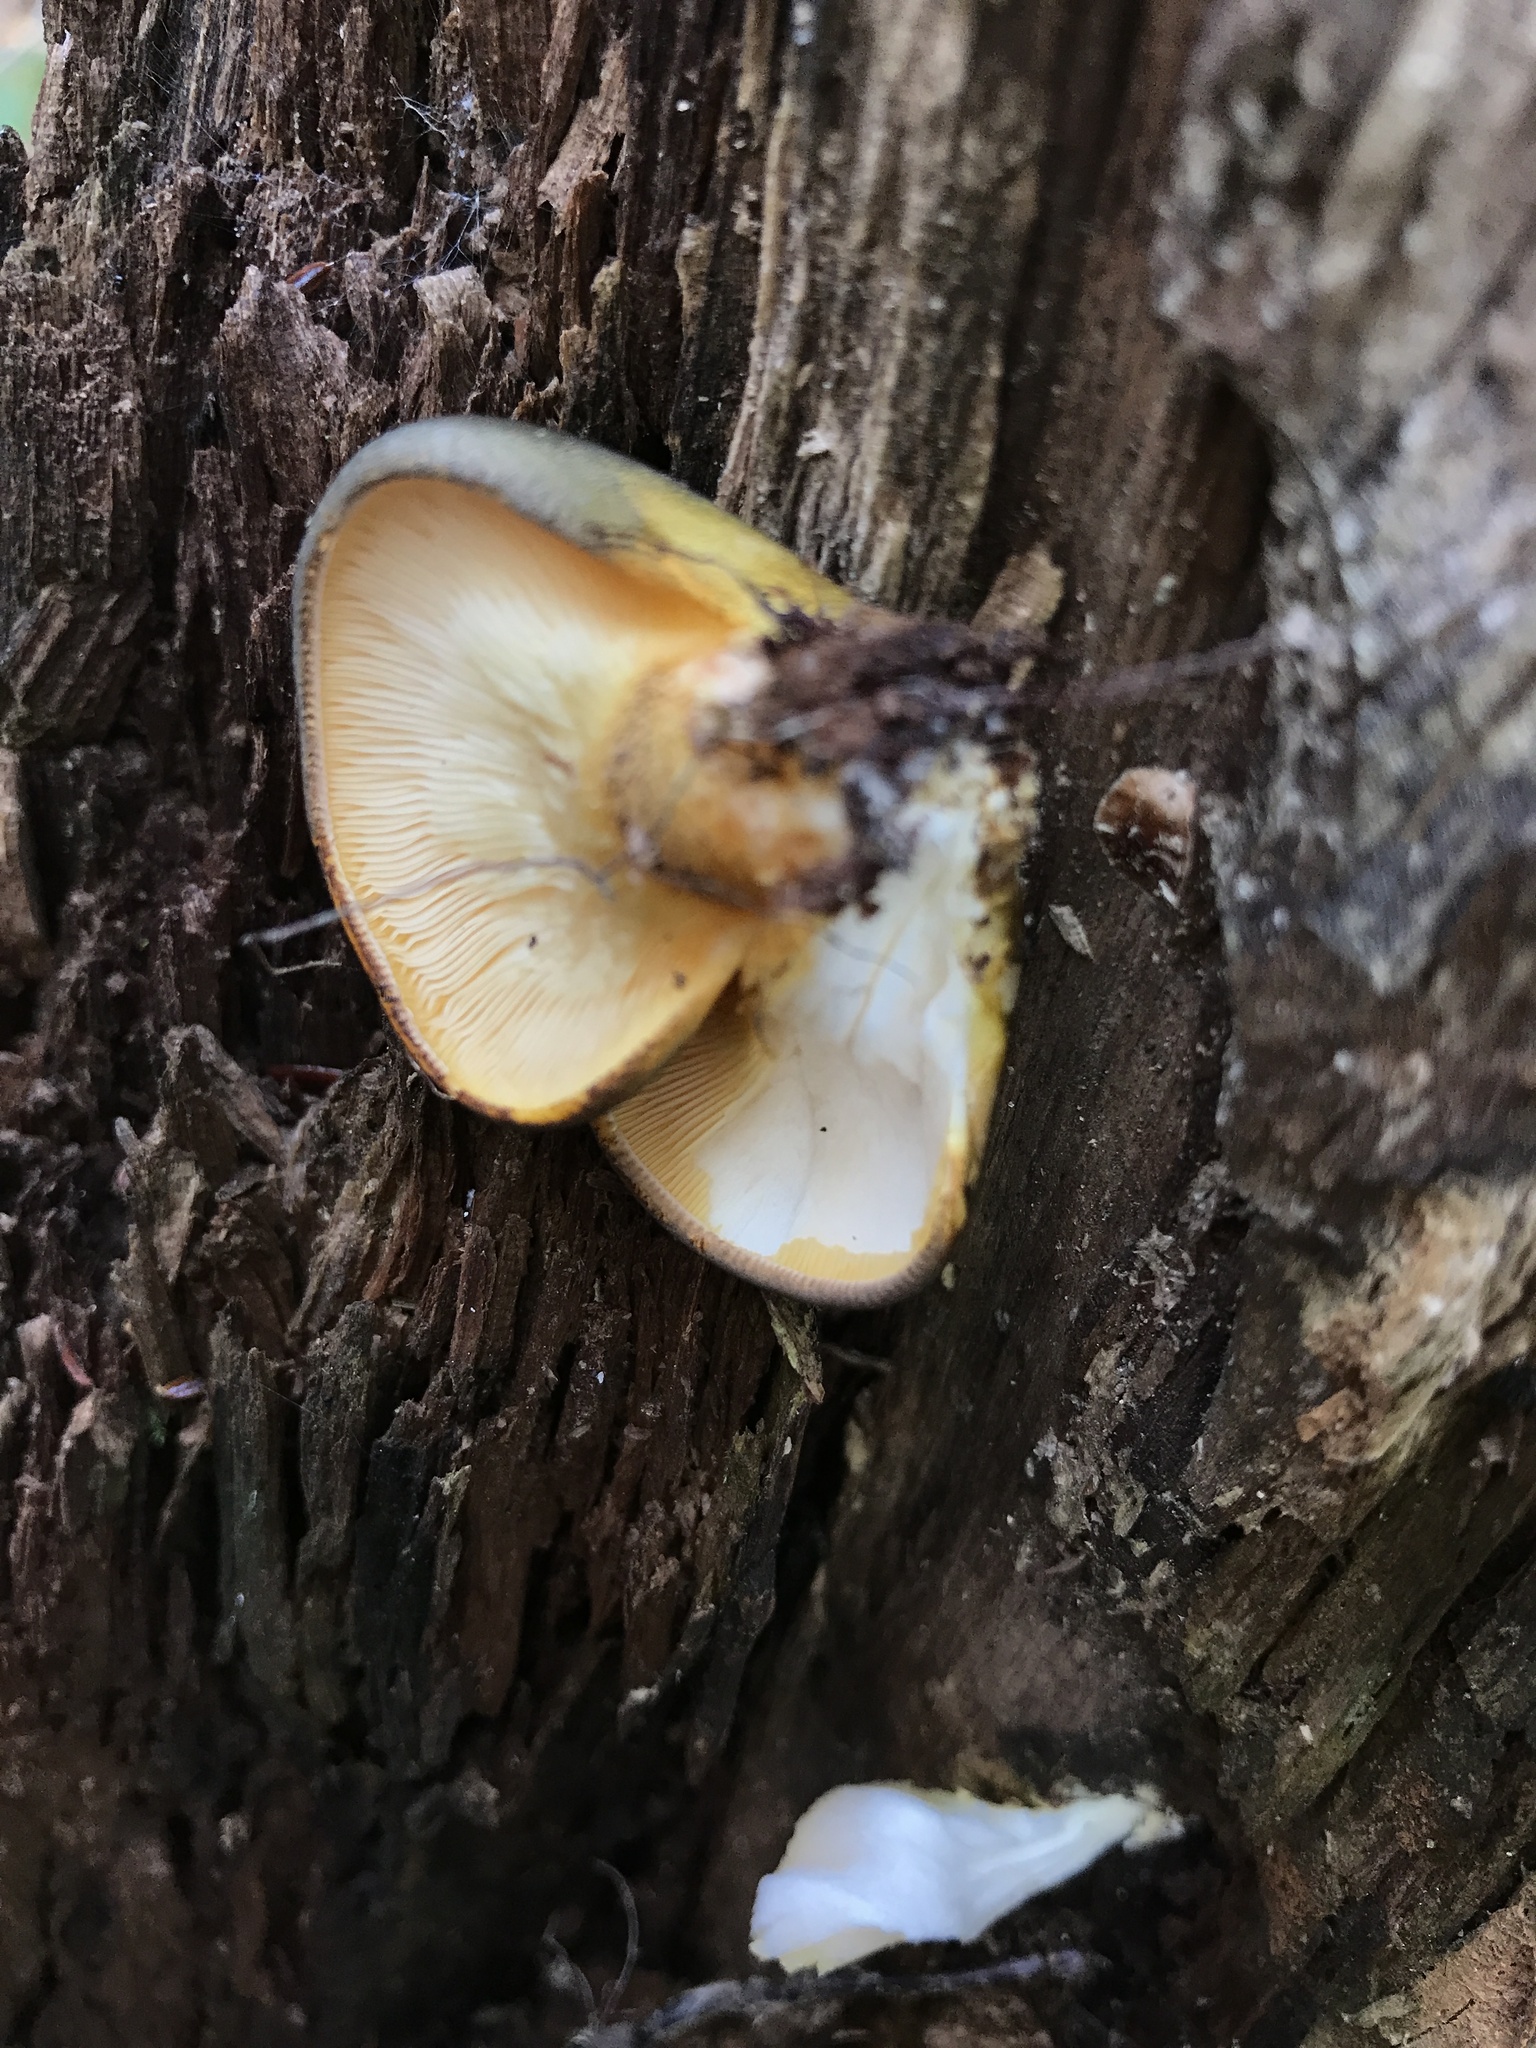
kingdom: Fungi
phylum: Basidiomycota
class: Agaricomycetes
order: Agaricales
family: Sarcomyxaceae
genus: Sarcomyxa
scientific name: Sarcomyxa serotina
